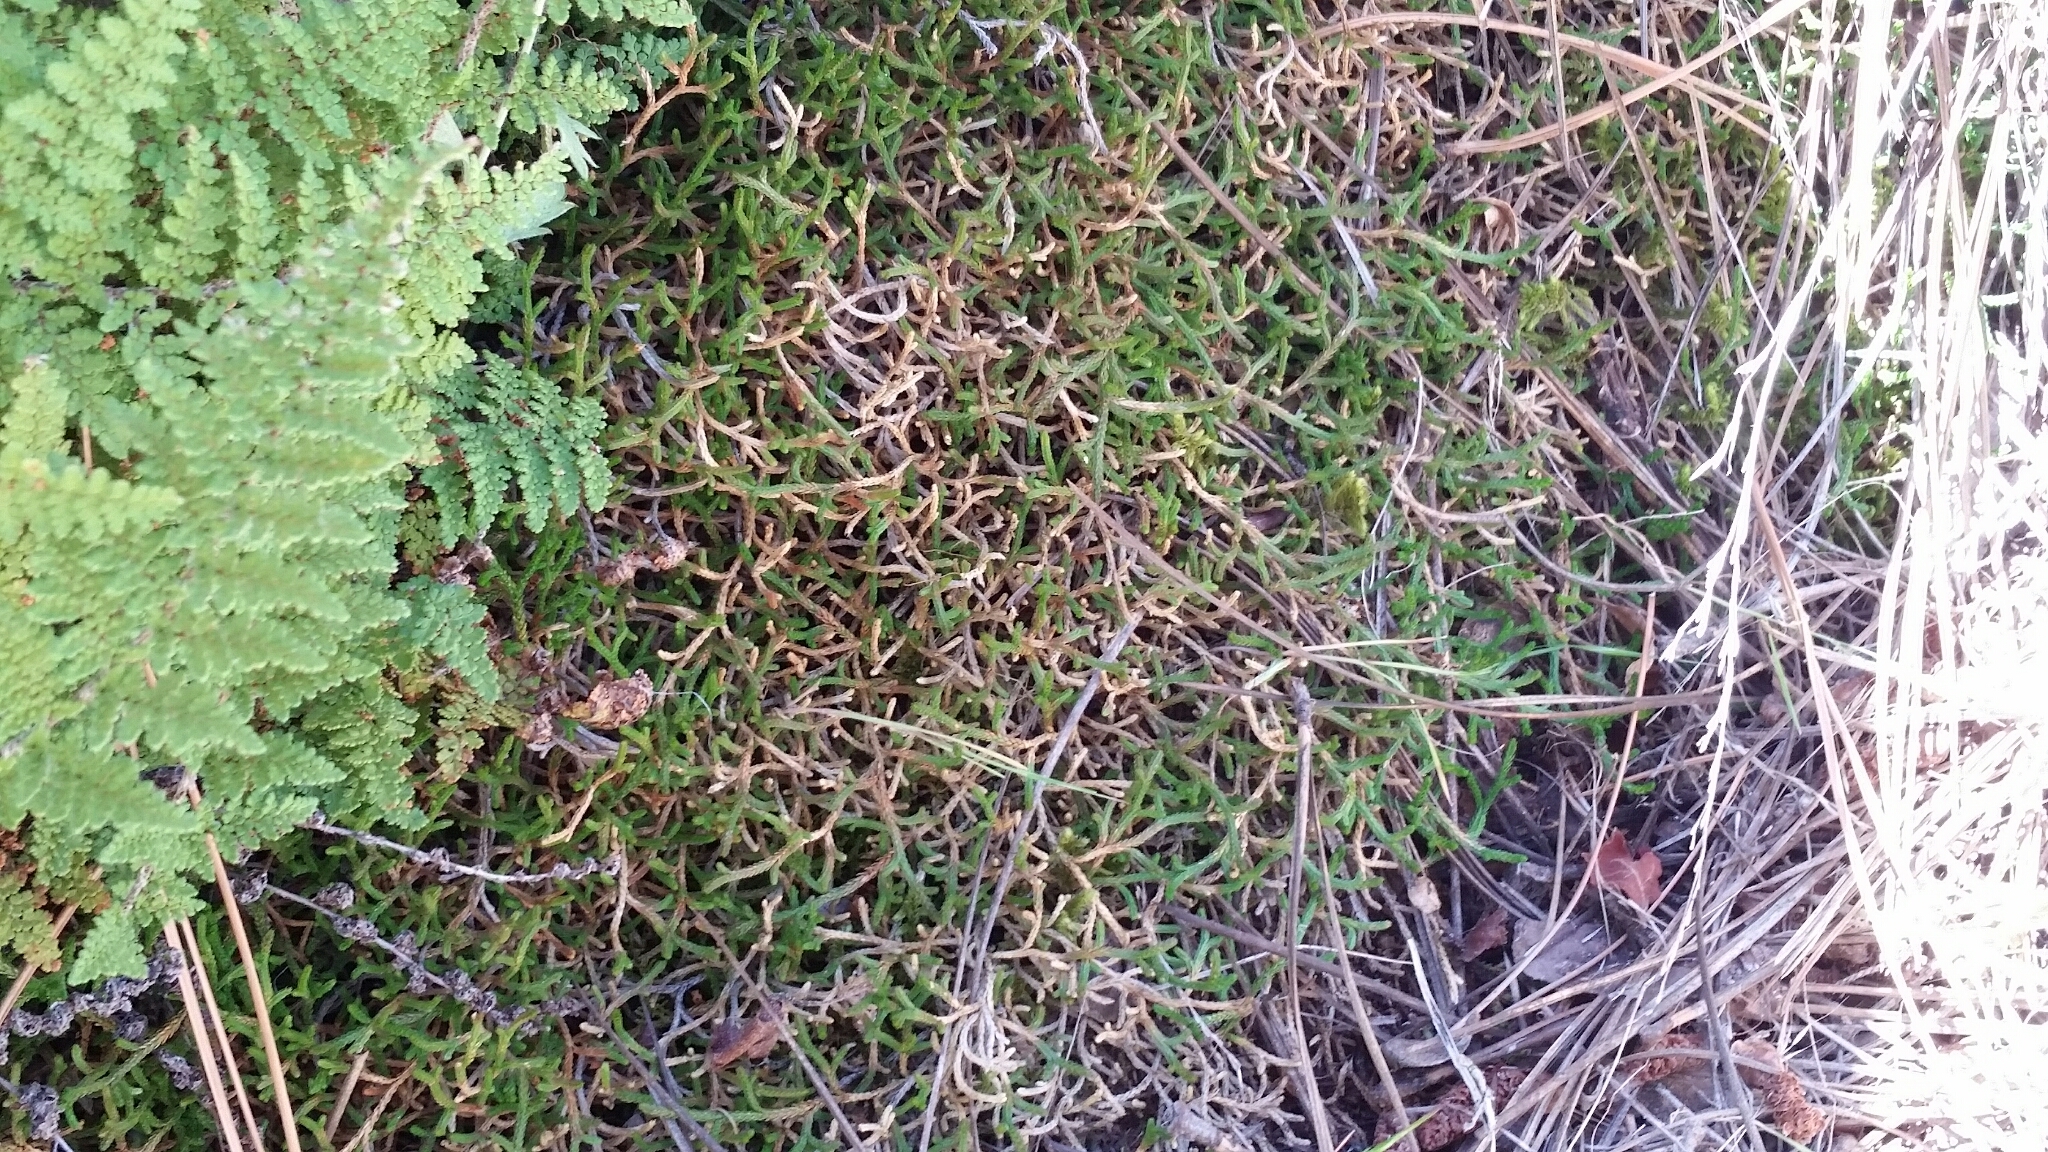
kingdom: Plantae
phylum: Tracheophyta
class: Lycopodiopsida
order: Selaginellales
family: Selaginellaceae
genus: Selaginella
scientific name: Selaginella mutica
